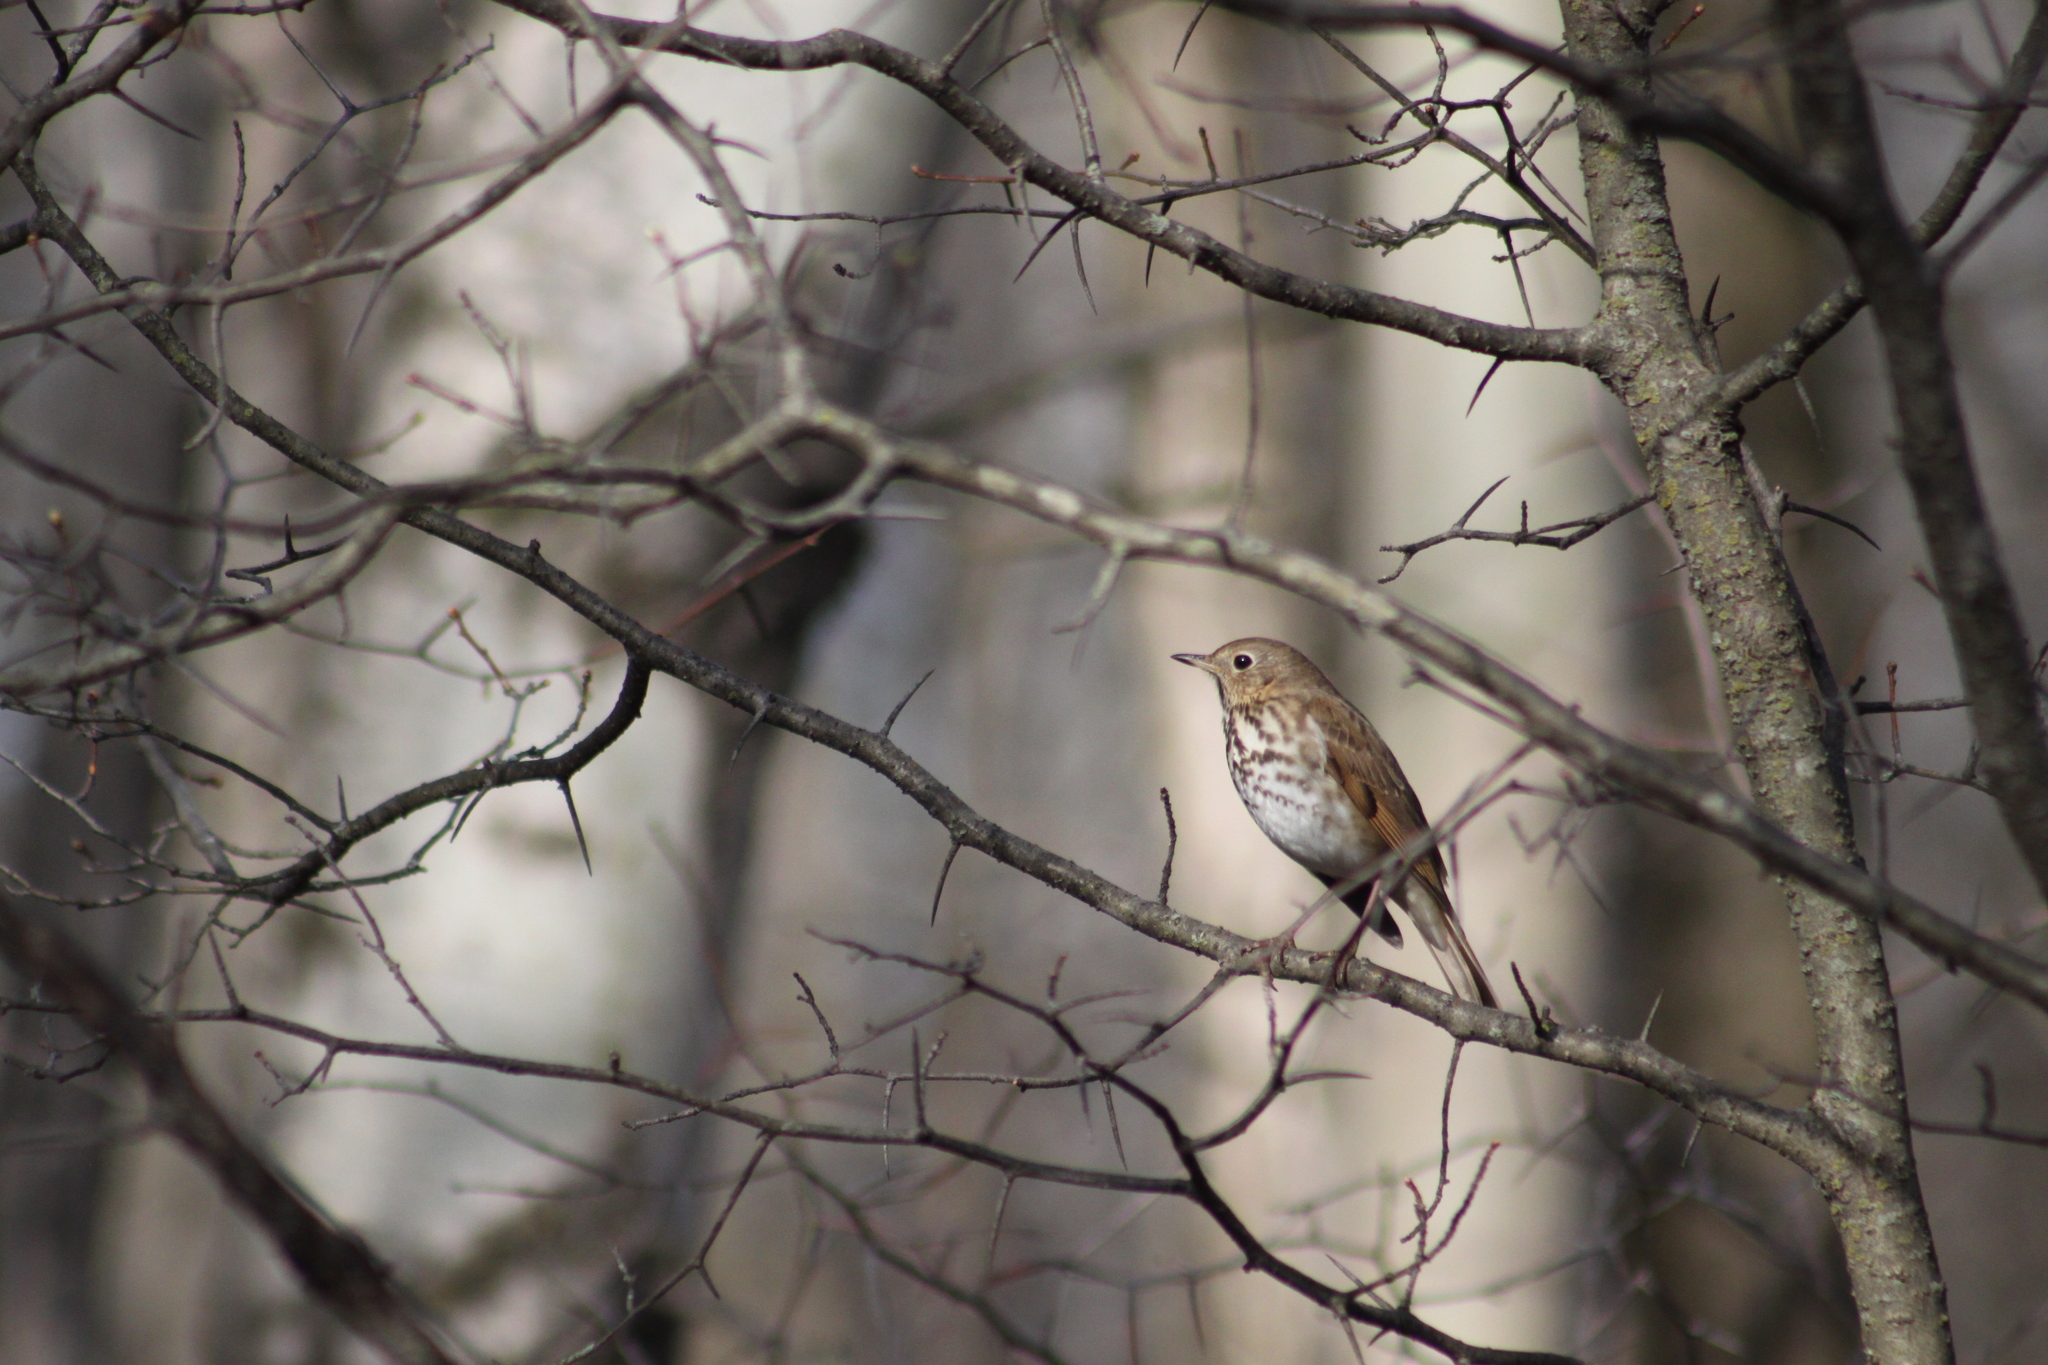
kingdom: Animalia
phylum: Chordata
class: Aves
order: Passeriformes
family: Turdidae
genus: Catharus
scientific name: Catharus guttatus
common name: Hermit thrush
